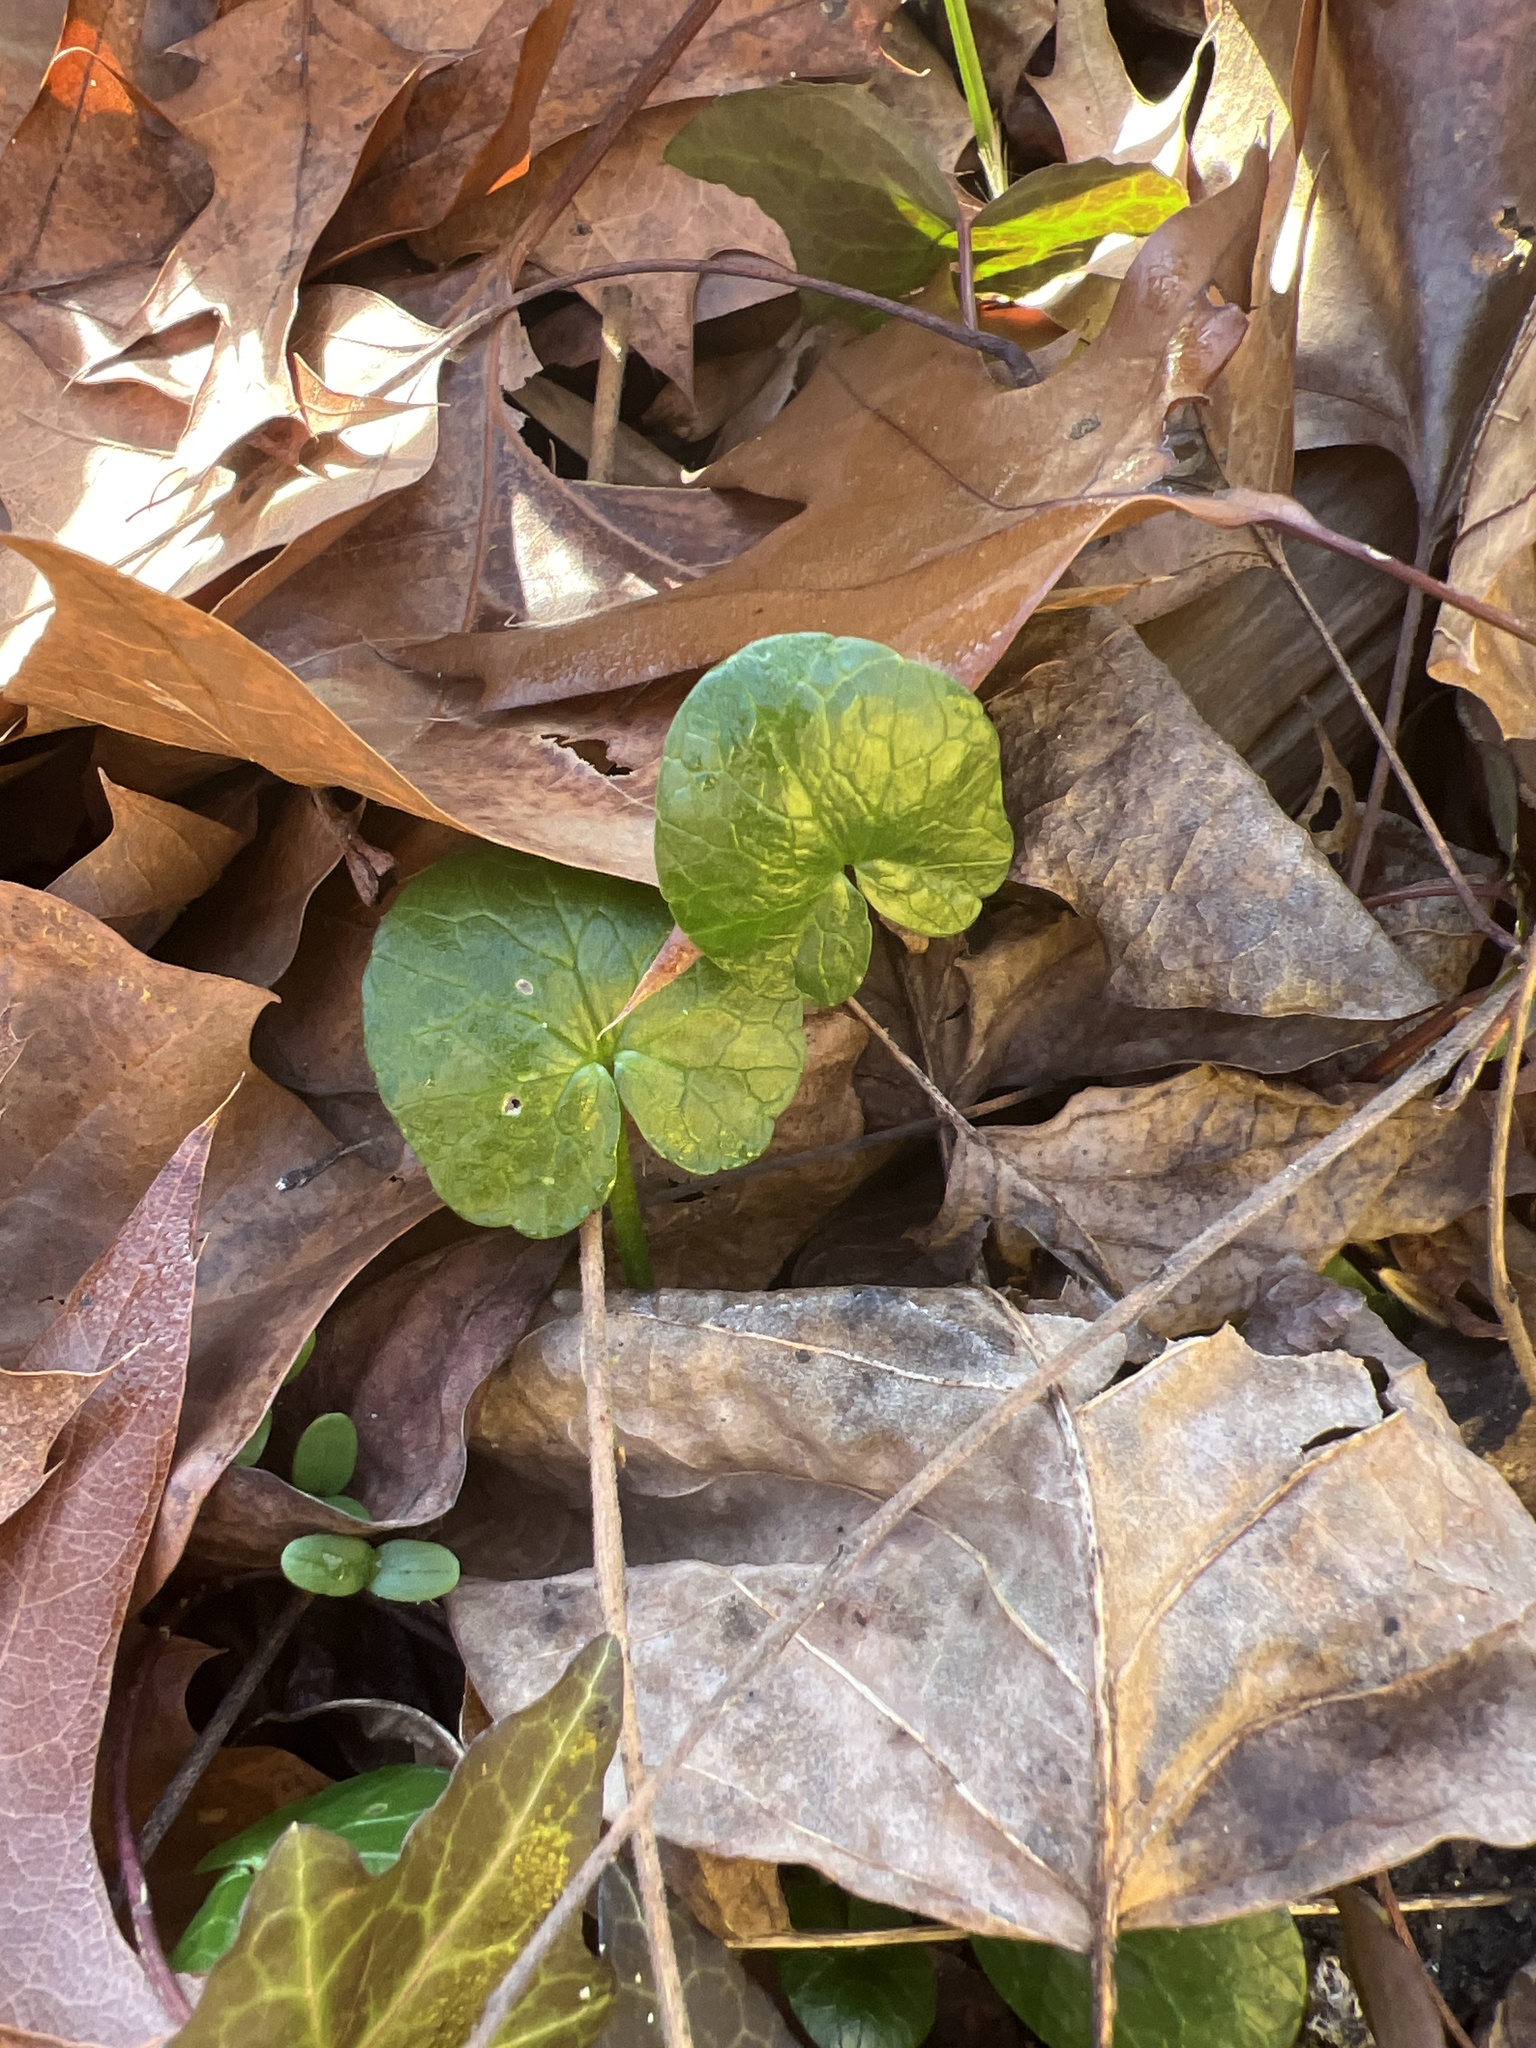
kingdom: Plantae
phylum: Tracheophyta
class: Magnoliopsida
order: Ranunculales
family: Ranunculaceae
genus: Ficaria
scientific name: Ficaria verna
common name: Lesser celandine
